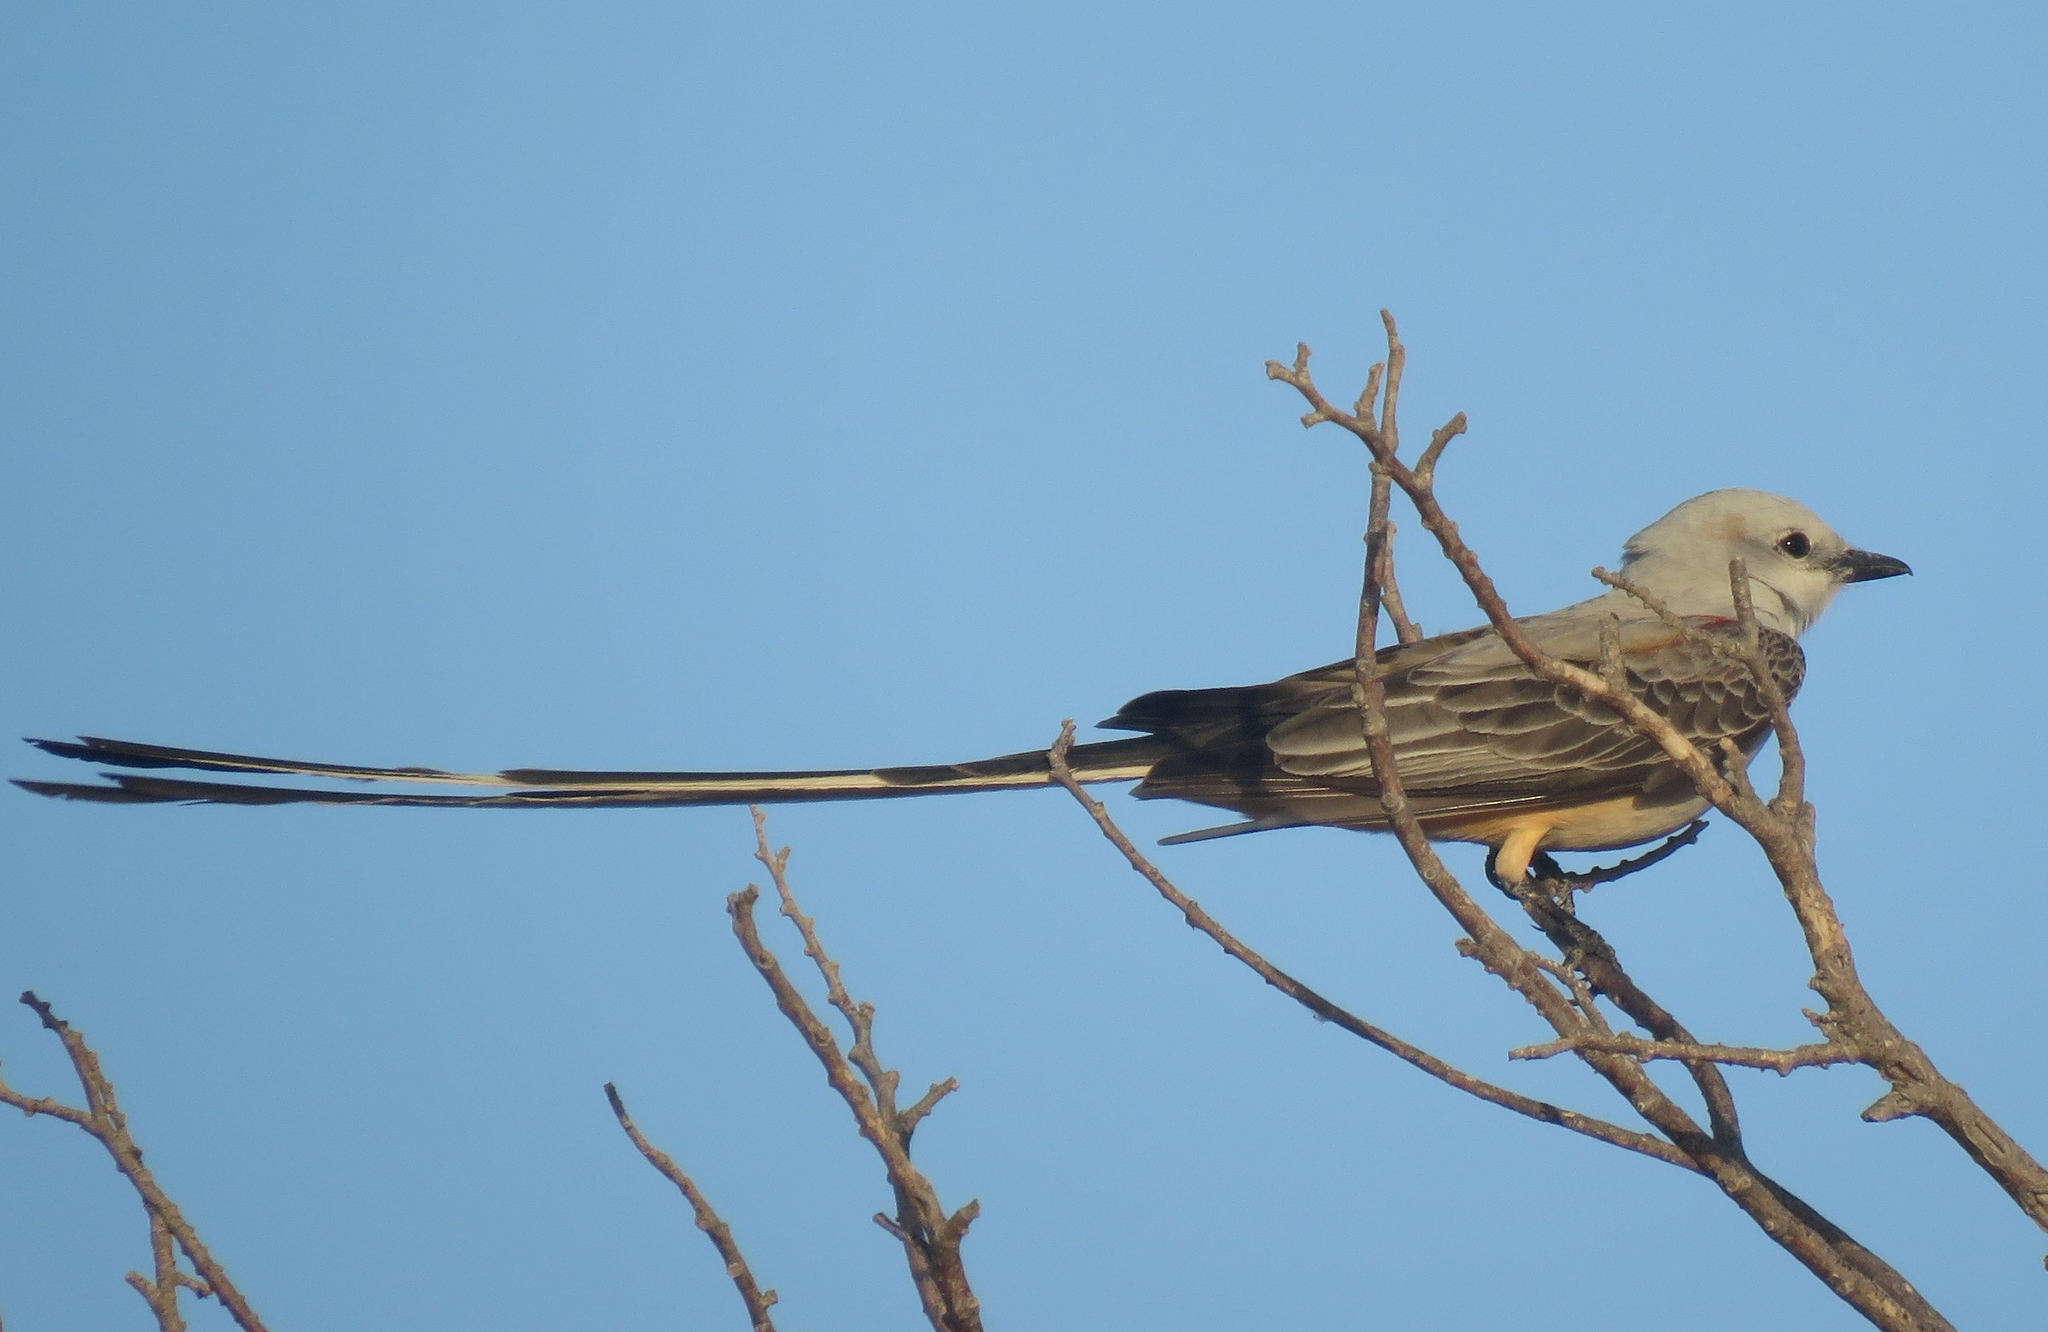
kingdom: Animalia
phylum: Chordata
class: Aves
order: Passeriformes
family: Tyrannidae
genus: Tyrannus
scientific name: Tyrannus forficatus
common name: Scissor-tailed flycatcher
